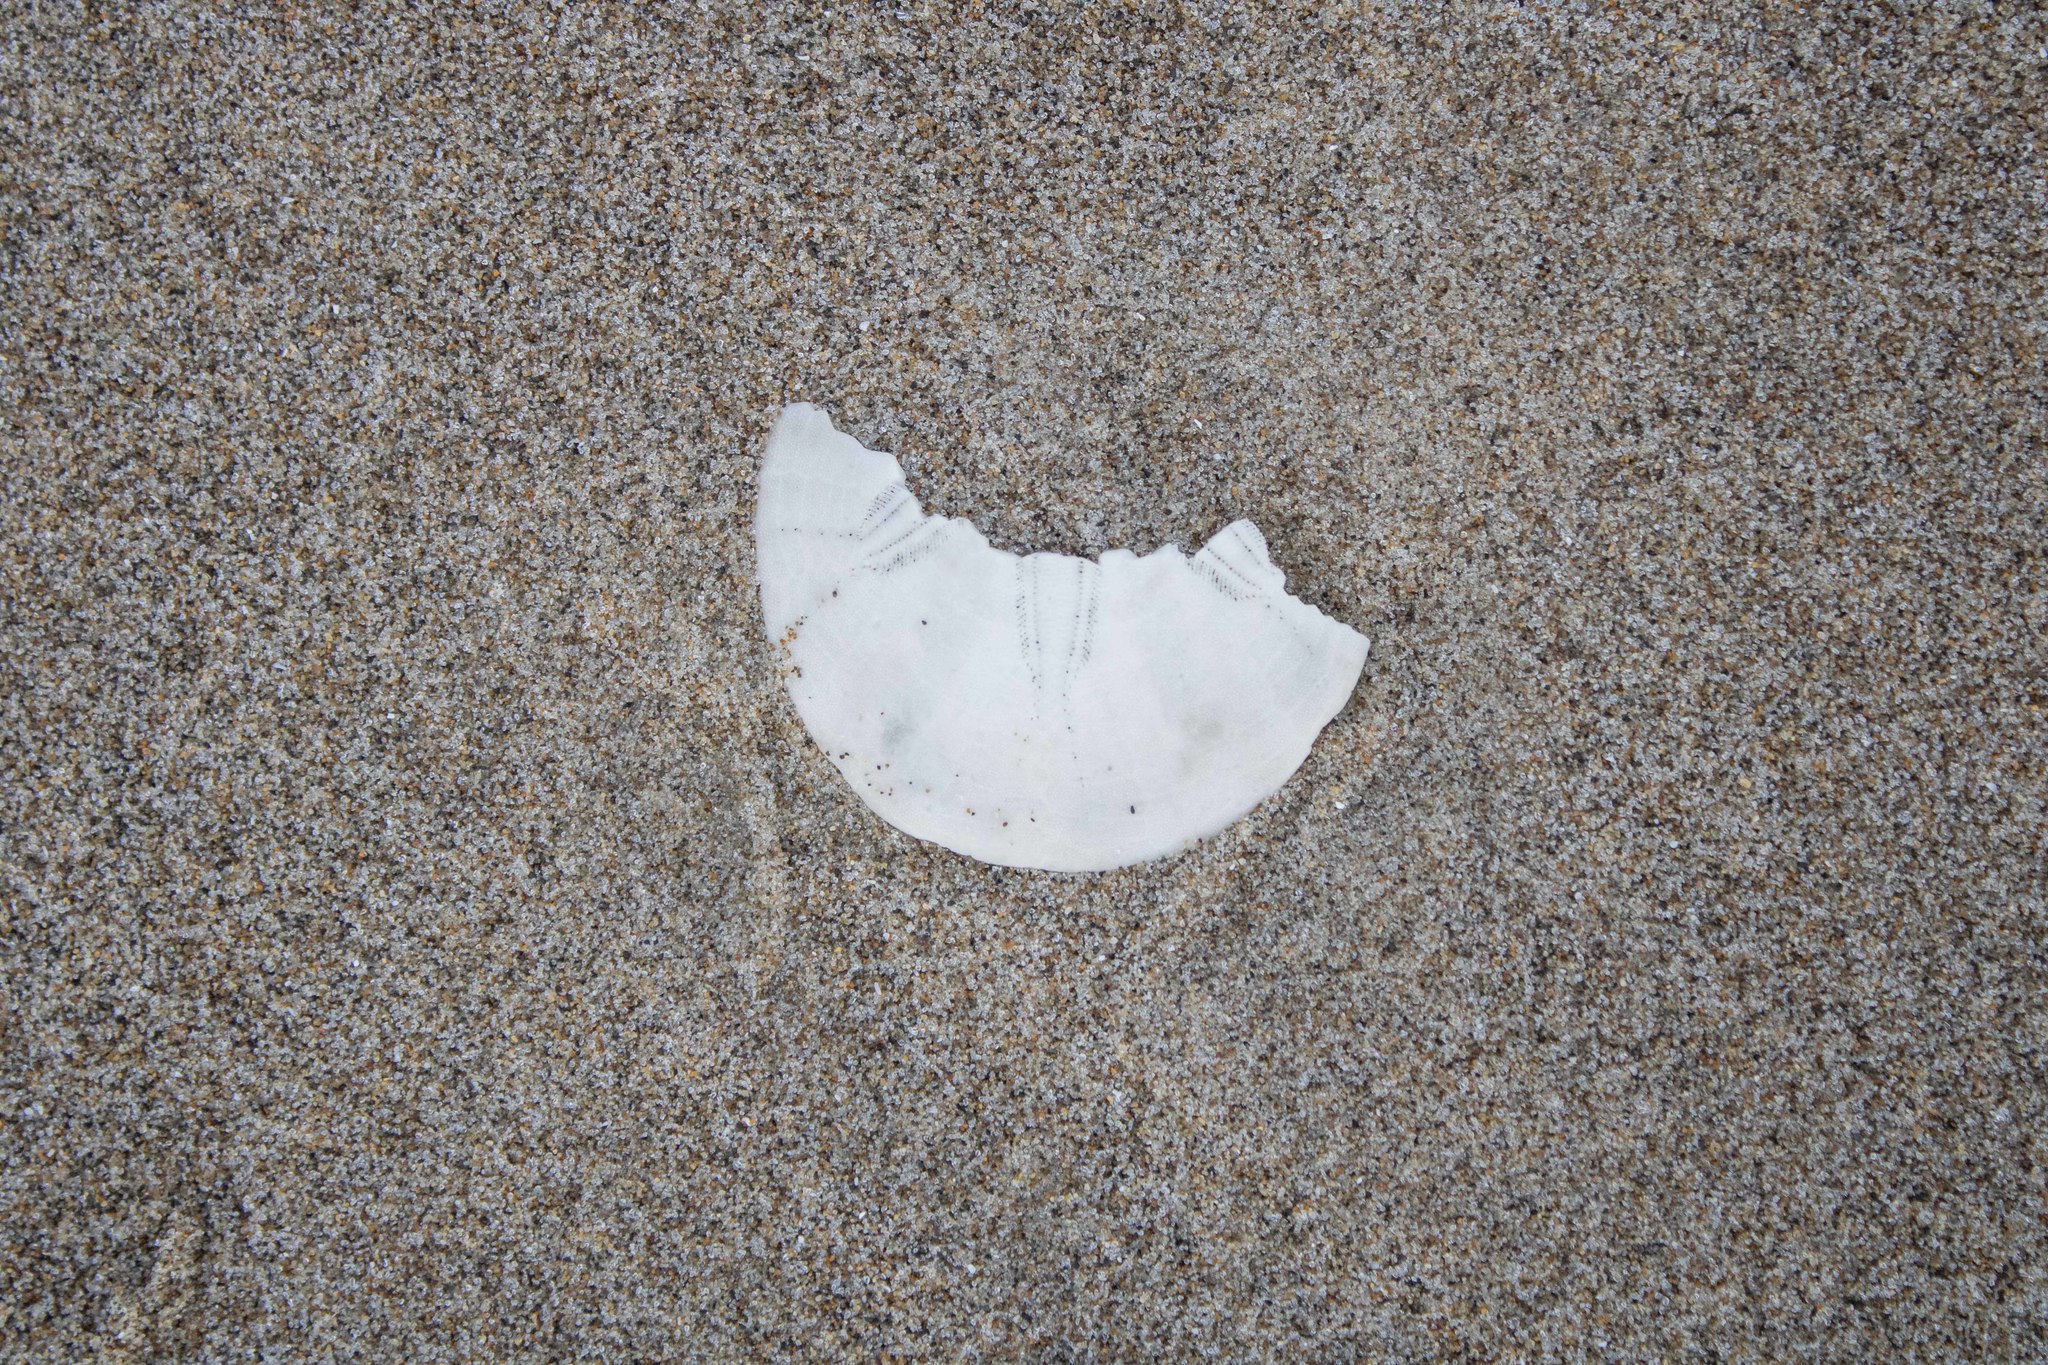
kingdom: Animalia
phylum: Echinodermata
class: Echinoidea
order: Echinolampadacea
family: Dendrasteridae
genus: Dendraster
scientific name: Dendraster excentricus
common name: Eccentric sand dollar sea urchin
